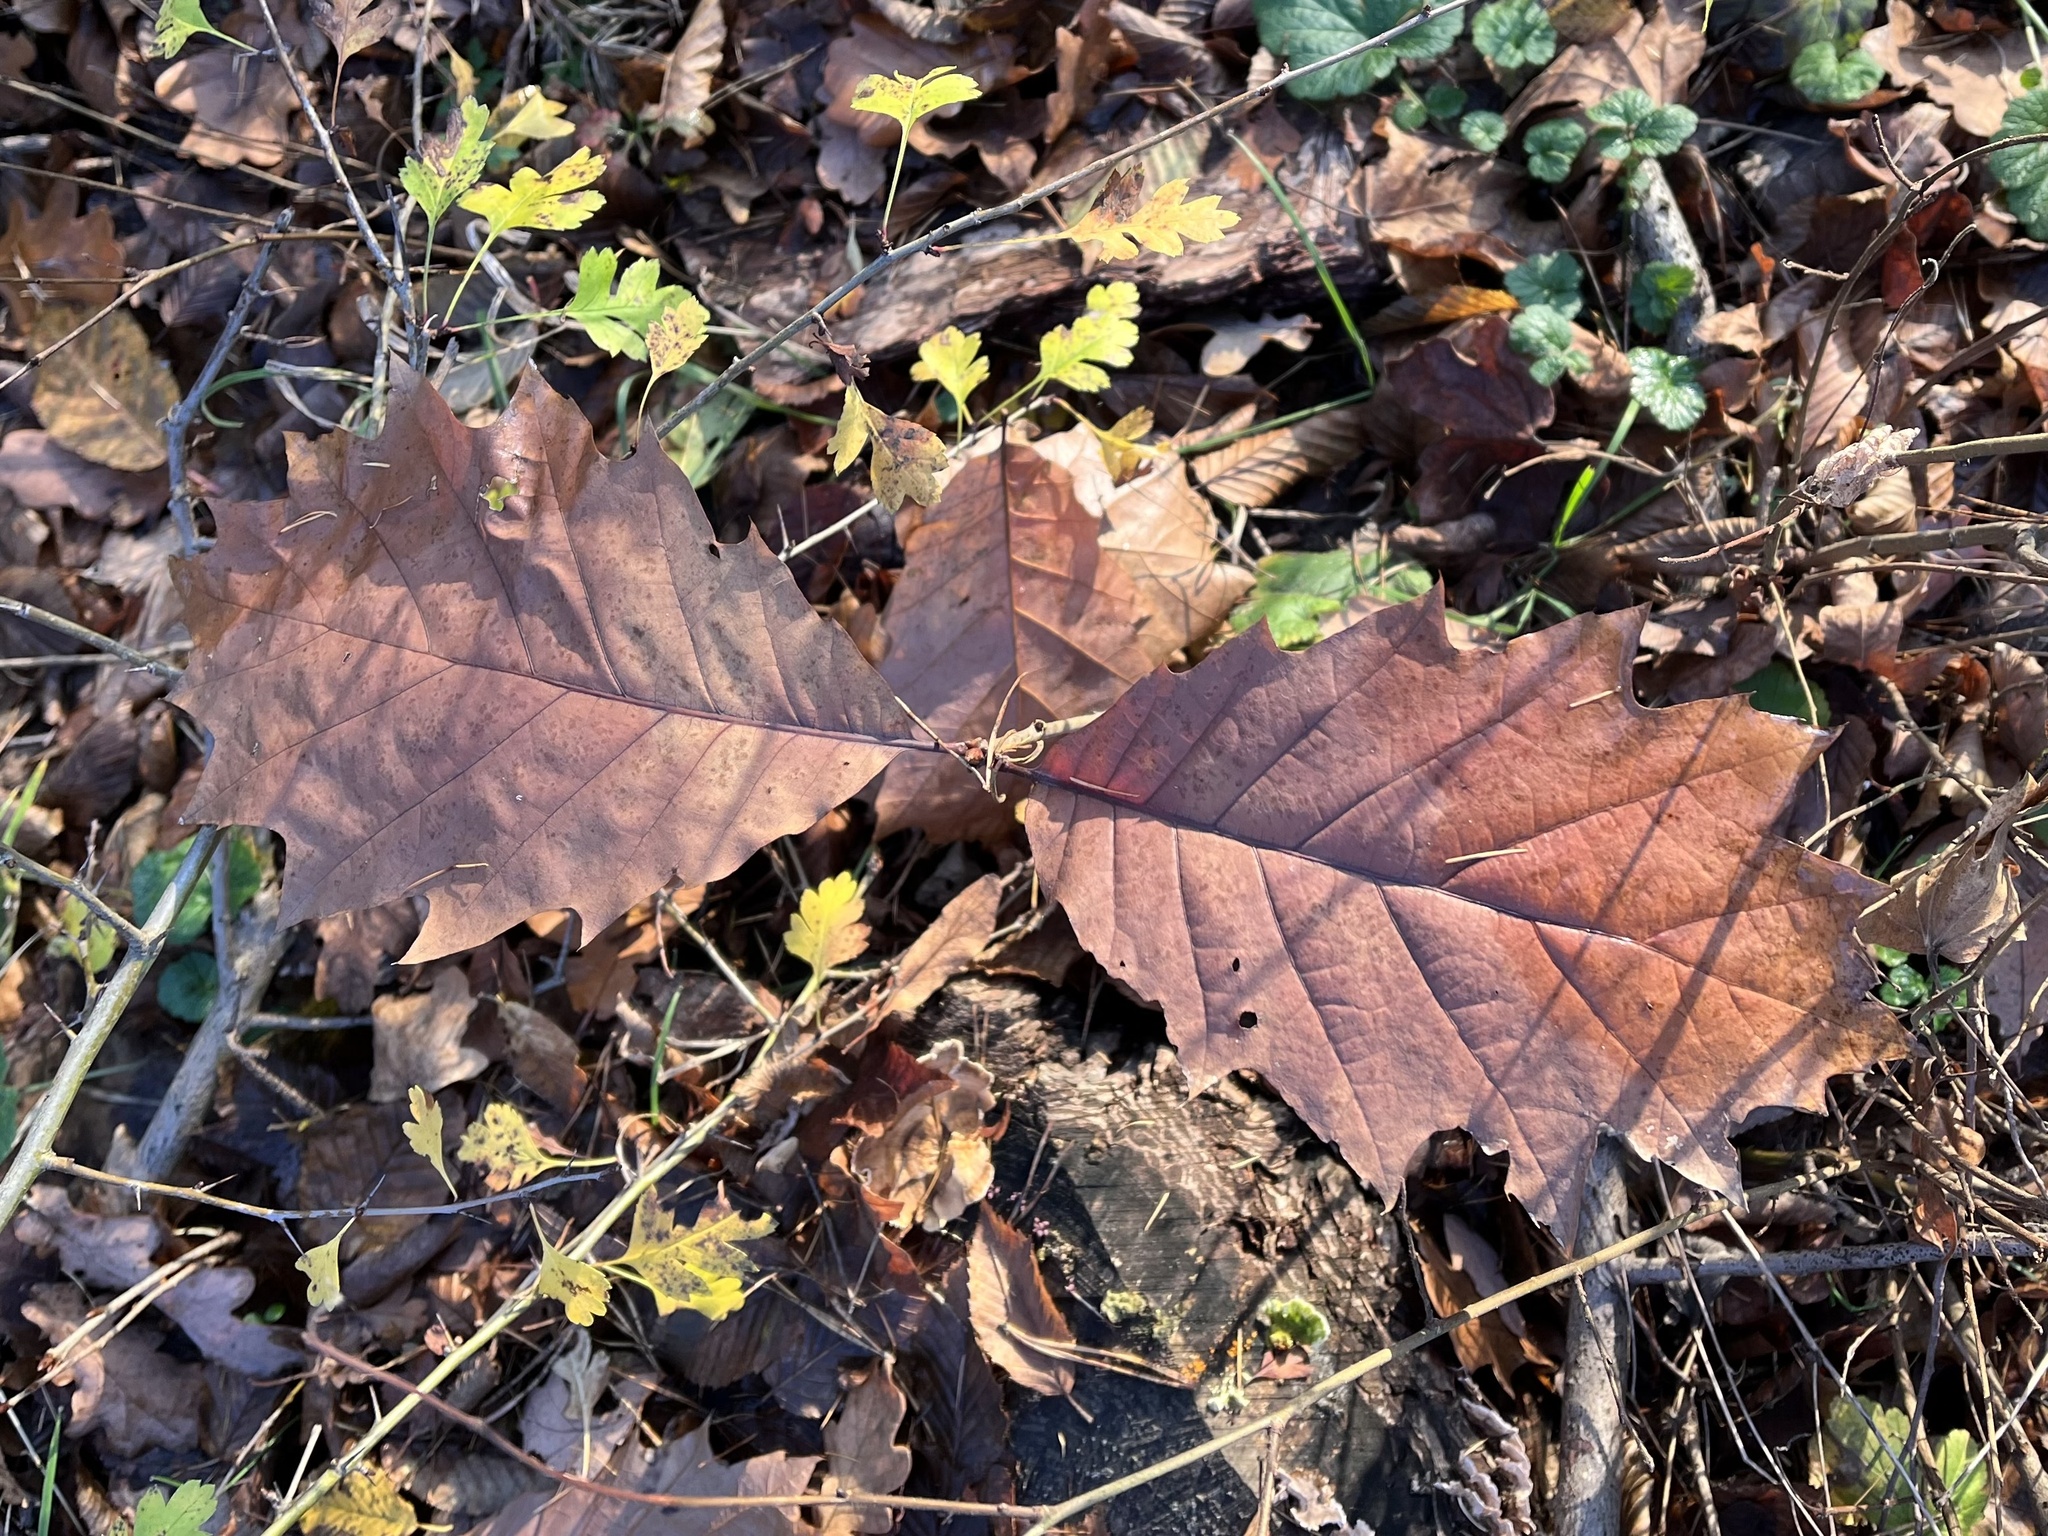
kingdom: Plantae
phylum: Tracheophyta
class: Magnoliopsida
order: Fagales
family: Fagaceae
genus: Quercus
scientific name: Quercus rubra
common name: Red oak
